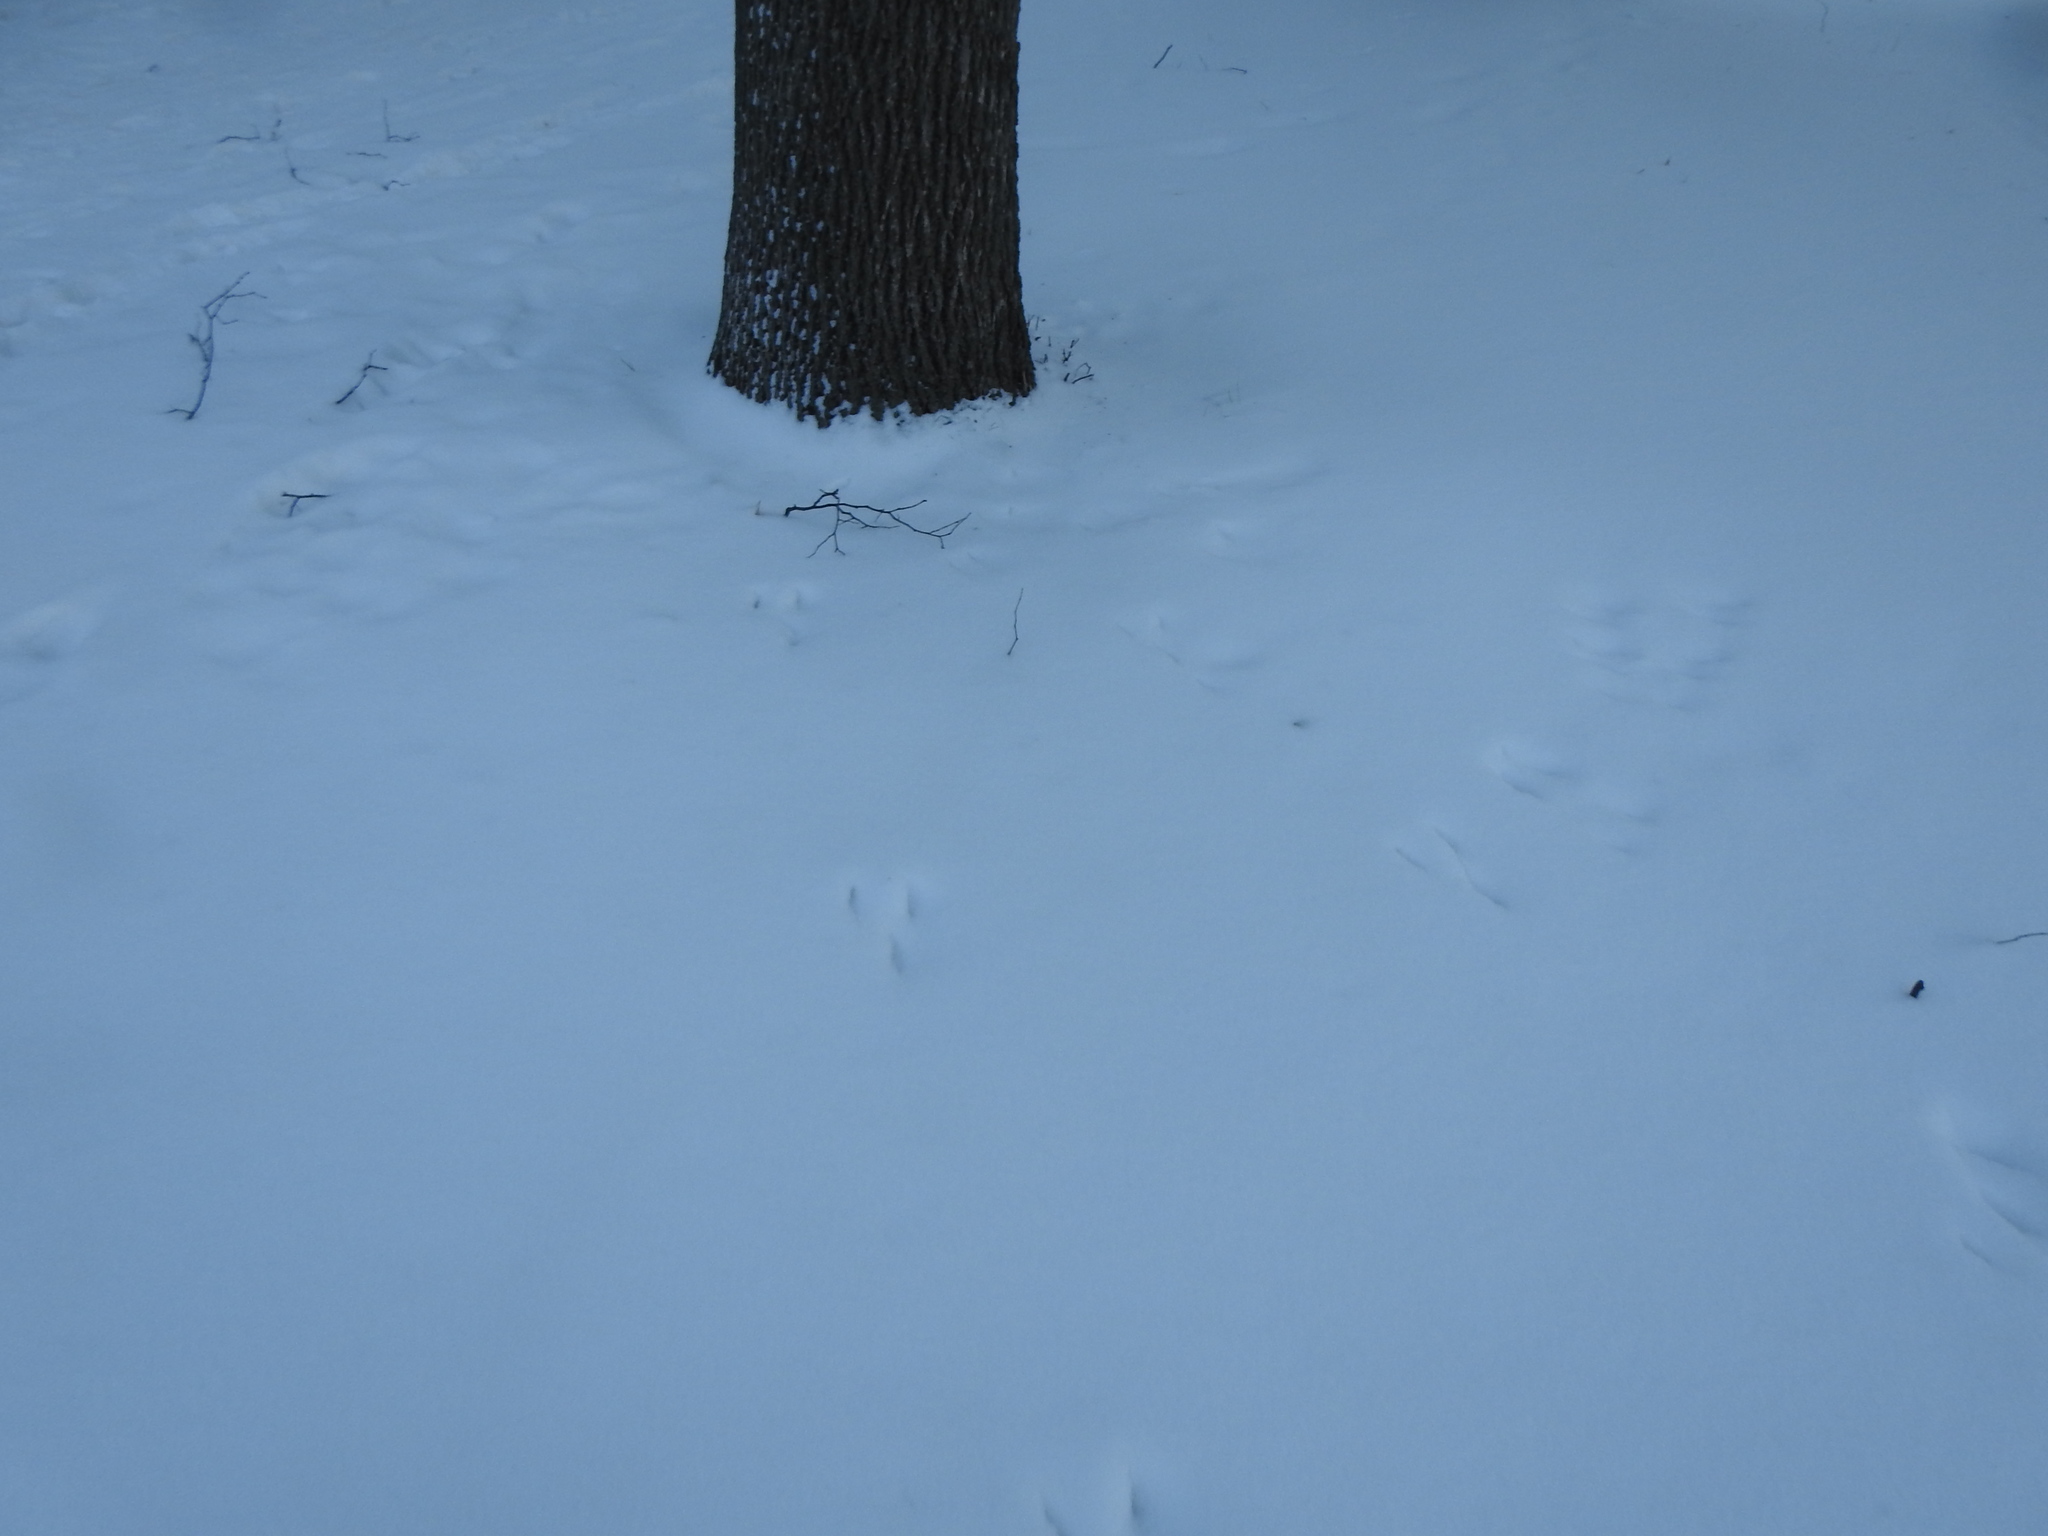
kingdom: Animalia
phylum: Chordata
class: Mammalia
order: Lagomorpha
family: Leporidae
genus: Sylvilagus
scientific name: Sylvilagus floridanus
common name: Eastern cottontail
